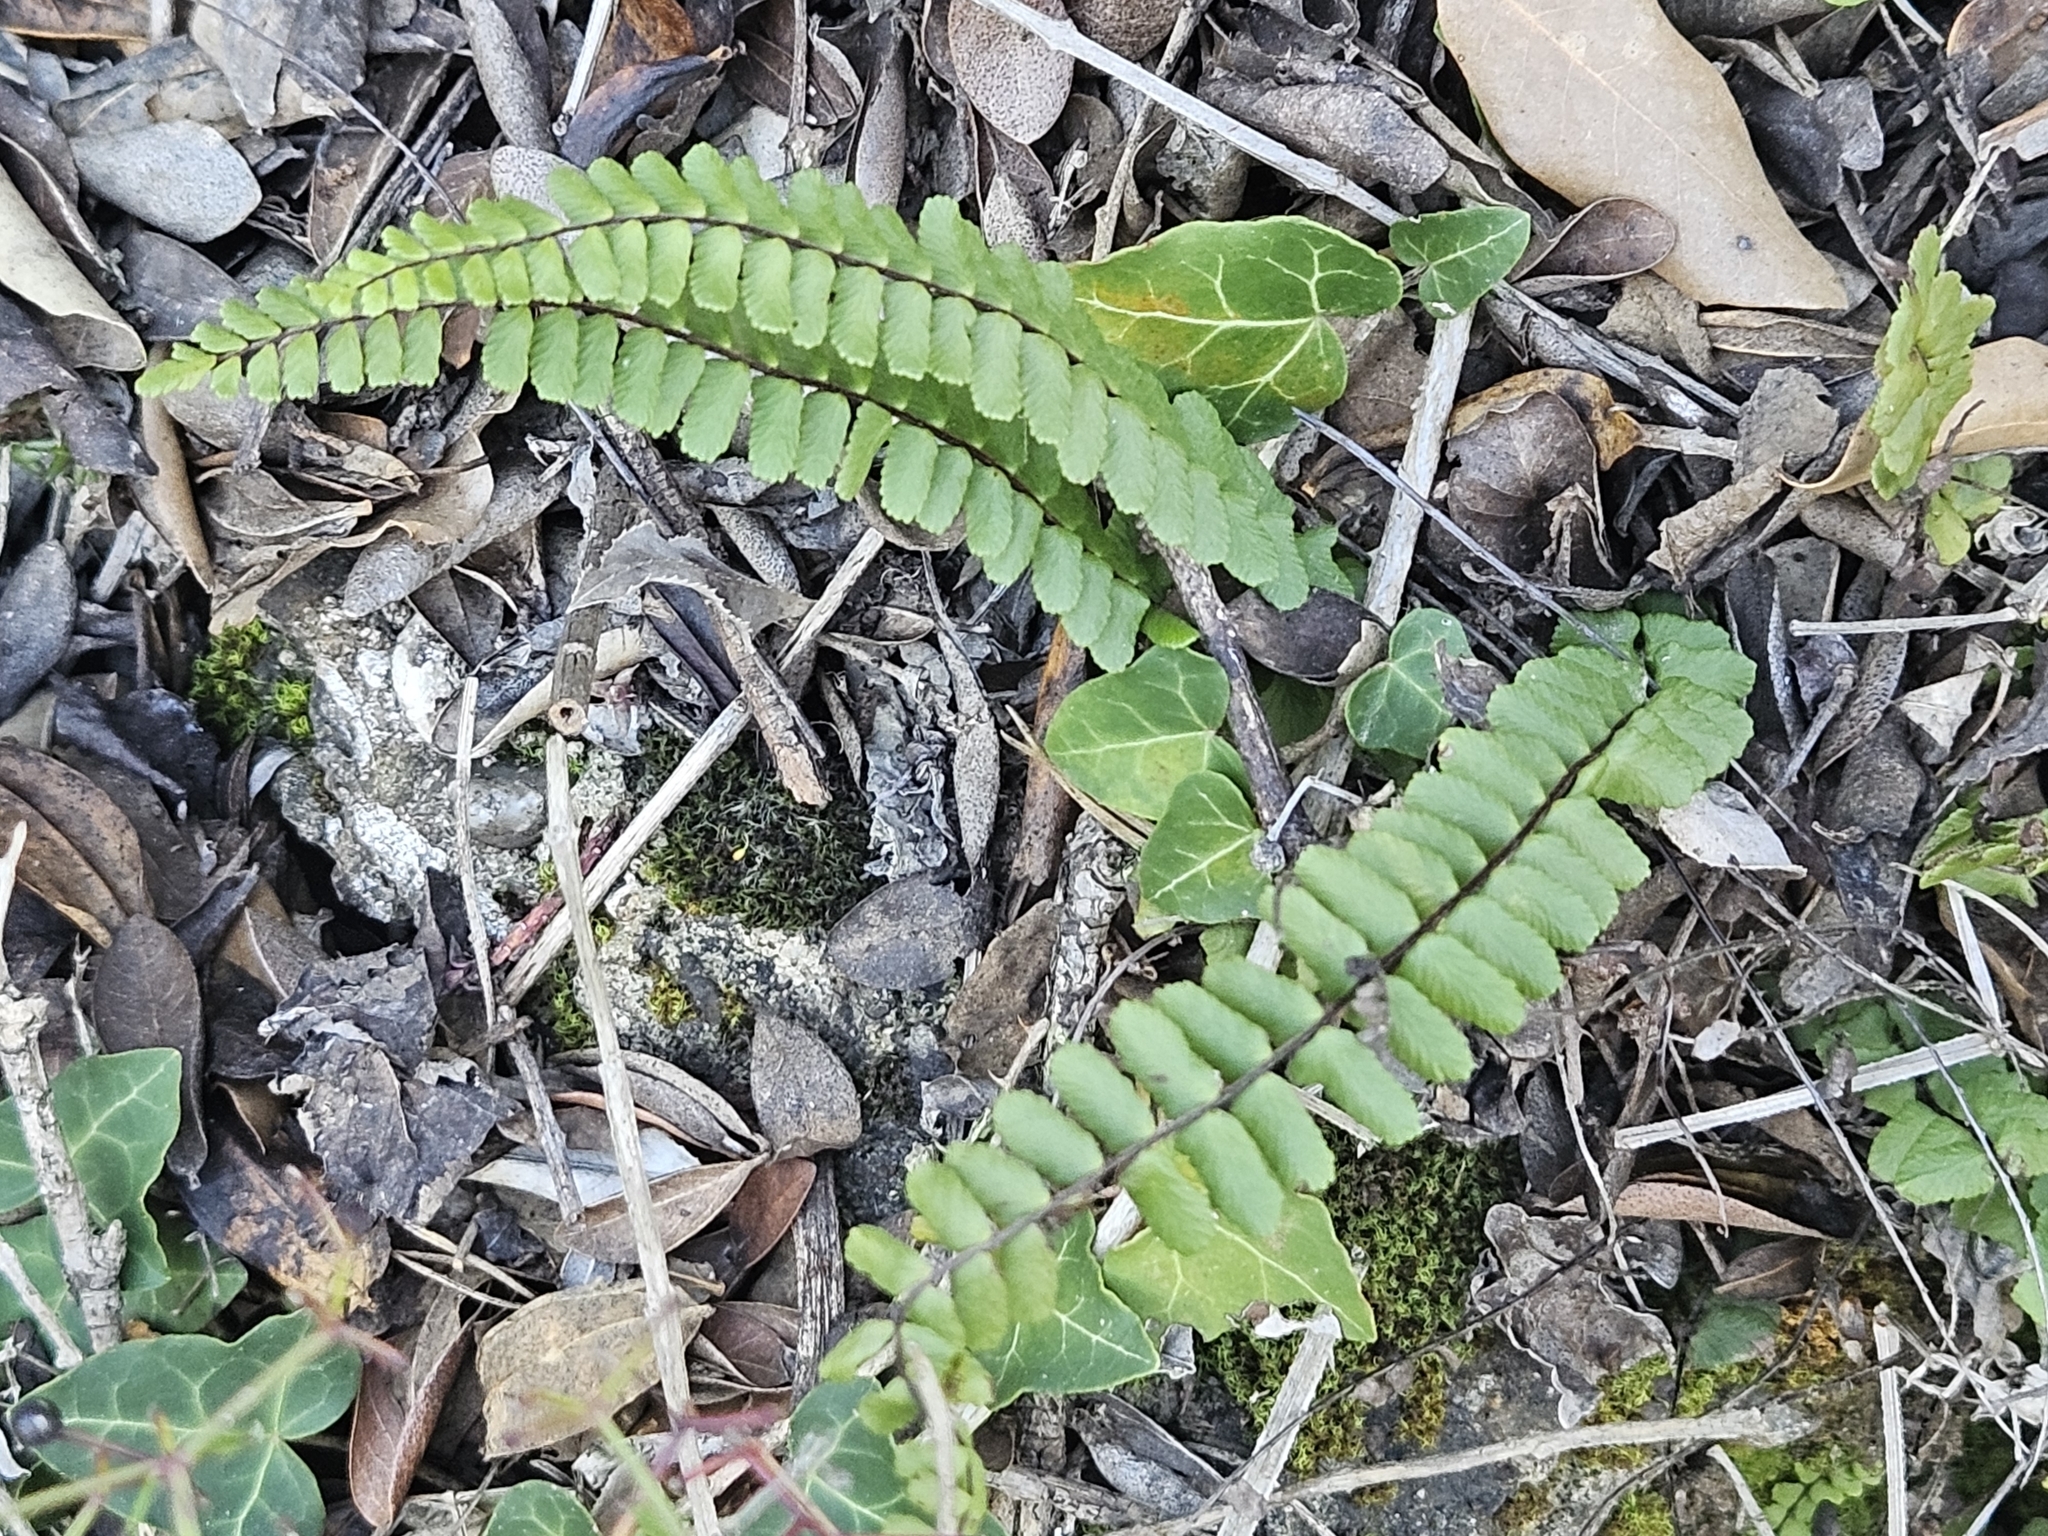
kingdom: Plantae
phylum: Tracheophyta
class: Polypodiopsida
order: Polypodiales
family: Aspleniaceae
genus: Asplenium
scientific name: Asplenium trichomanes
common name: Maidenhair spleenwort
